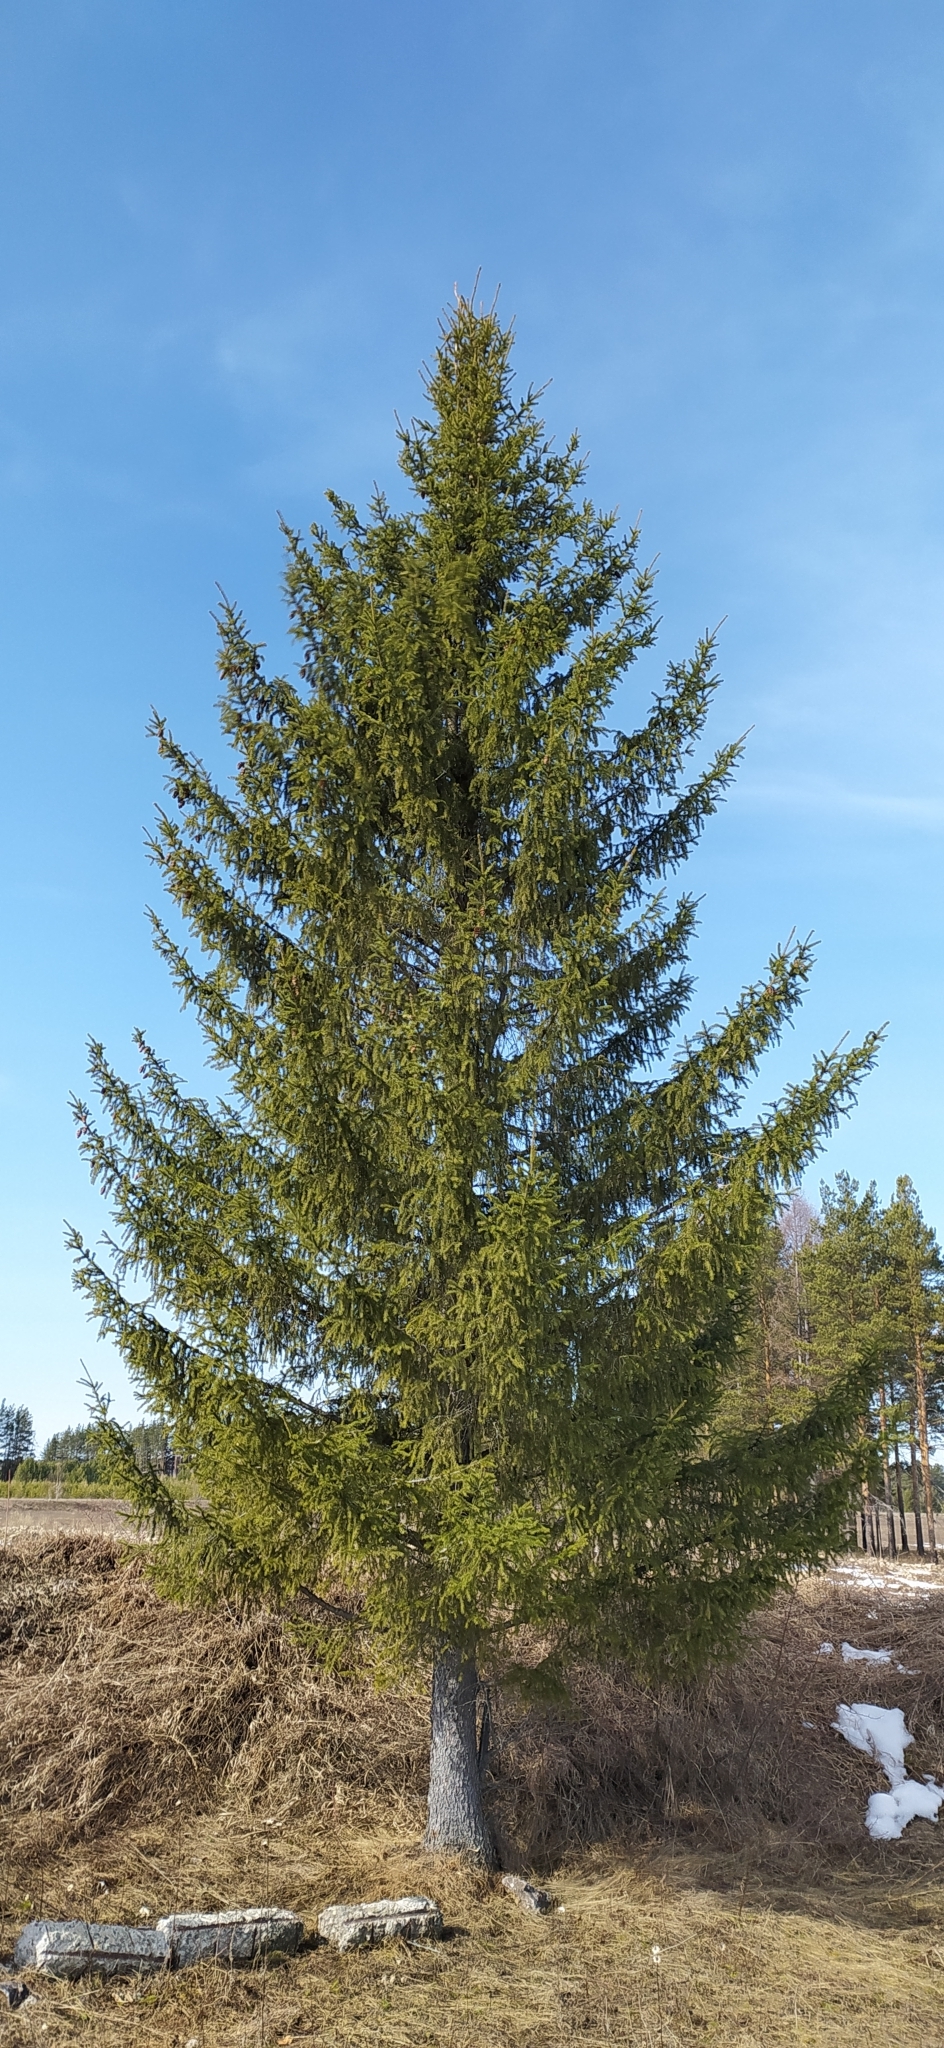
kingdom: Plantae
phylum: Tracheophyta
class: Pinopsida
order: Pinales
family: Pinaceae
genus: Picea
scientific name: Picea obovata
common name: Siberian spruce
